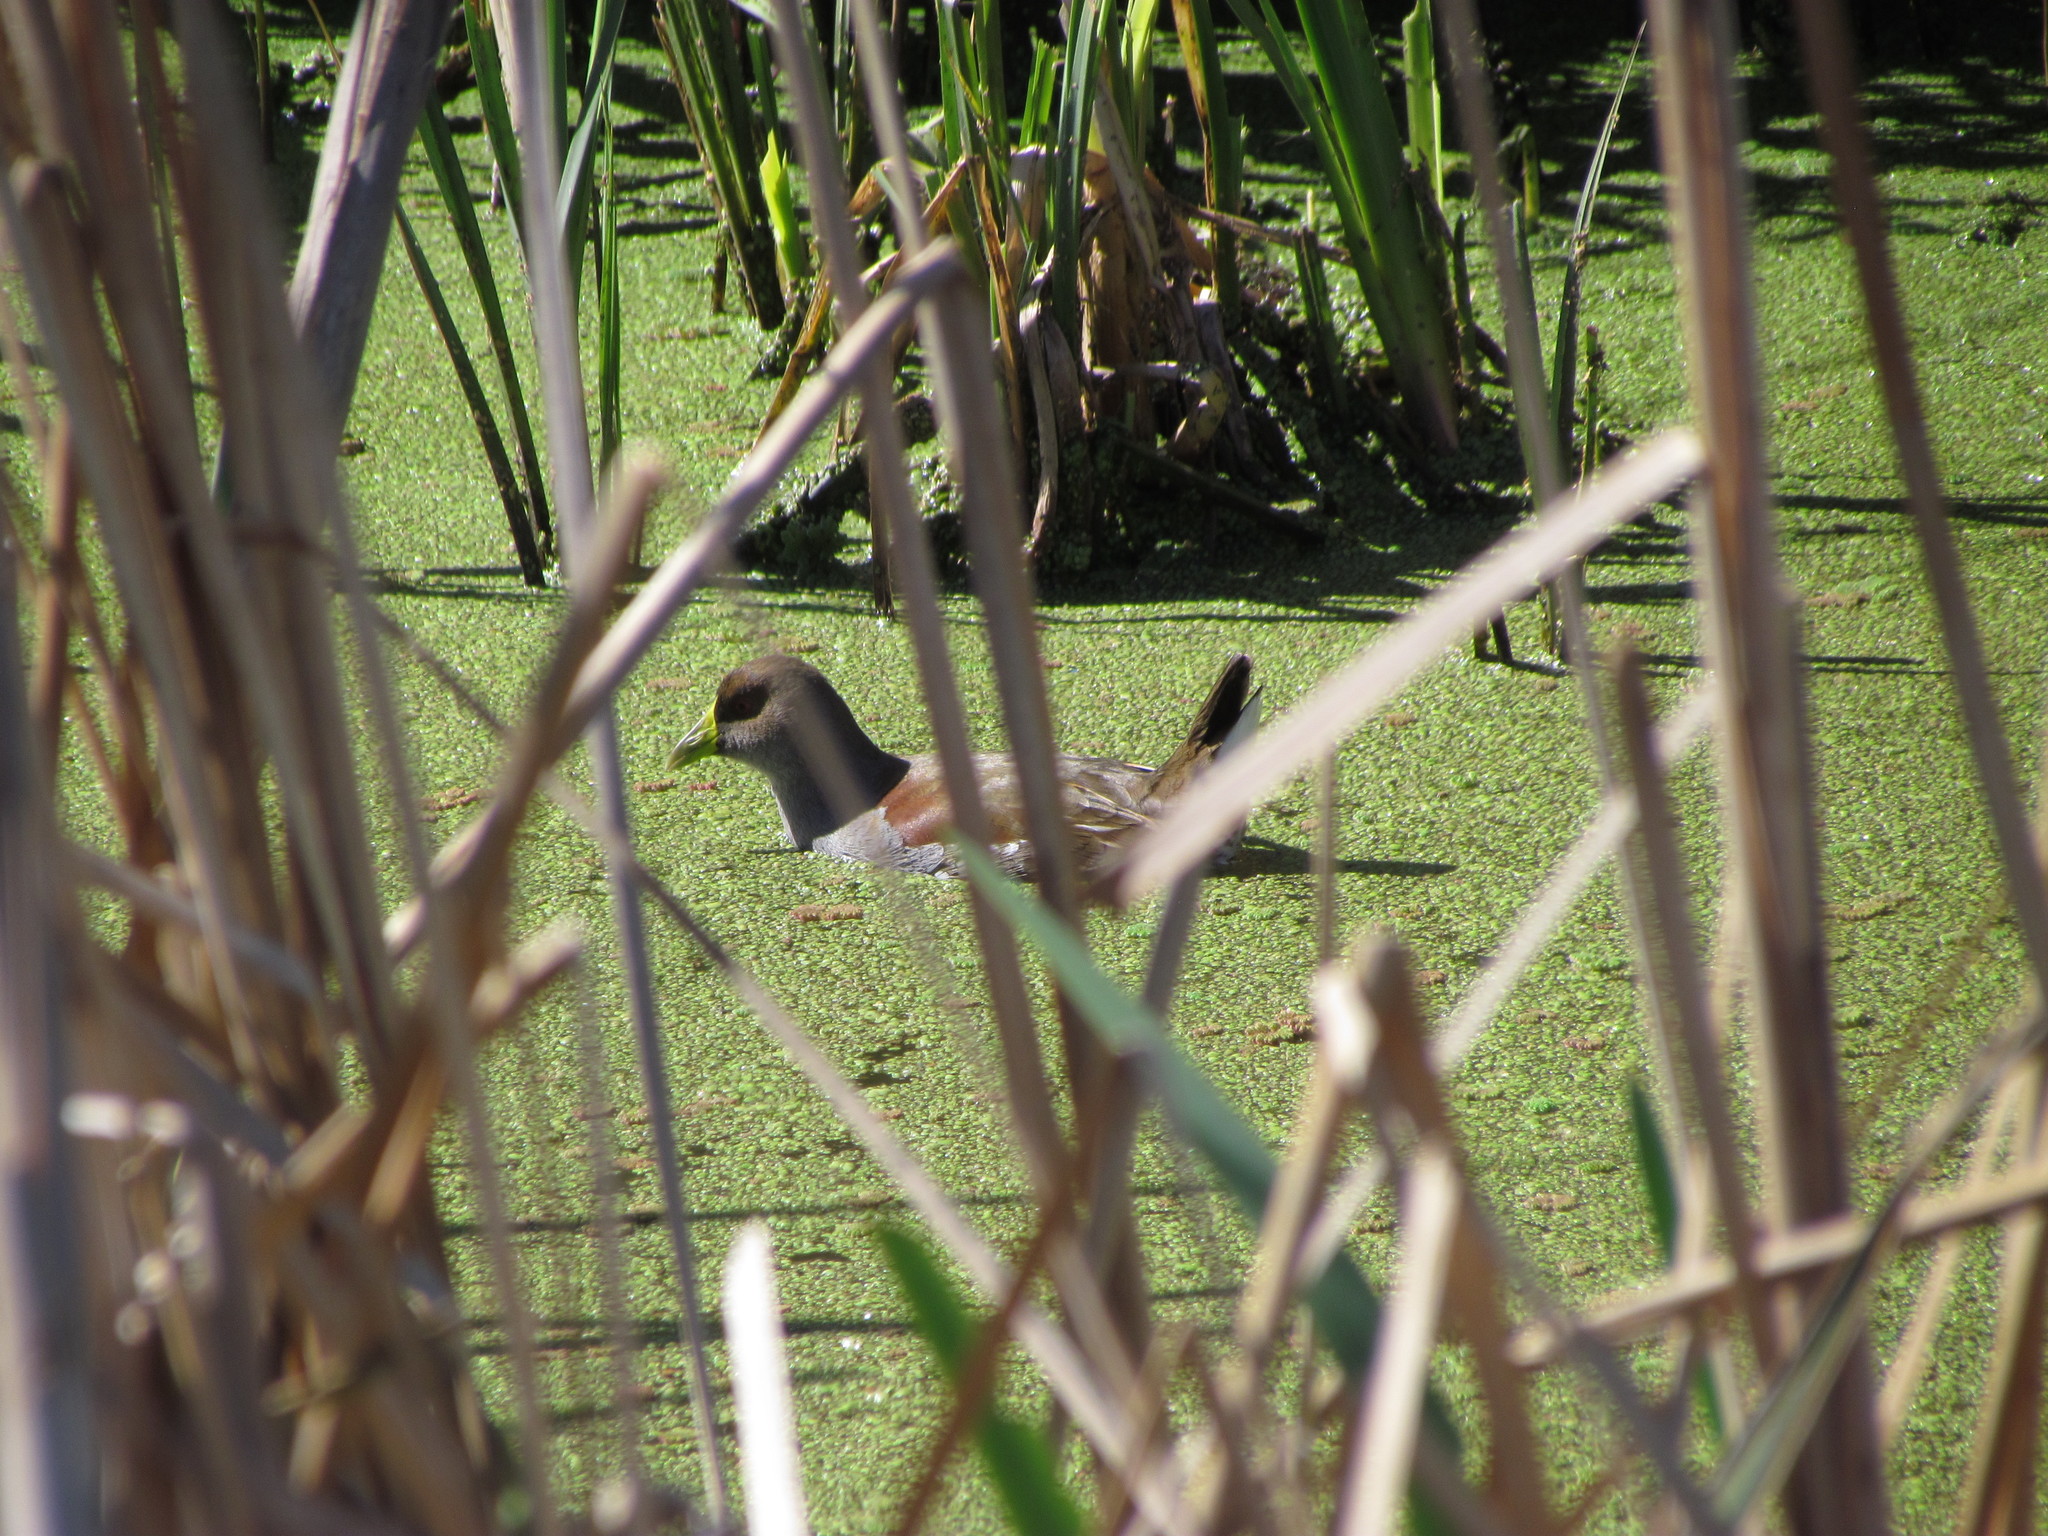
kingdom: Animalia
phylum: Chordata
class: Aves
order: Gruiformes
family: Rallidae
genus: Gallinula
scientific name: Gallinula melanops
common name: Spot-flanked gallinule
